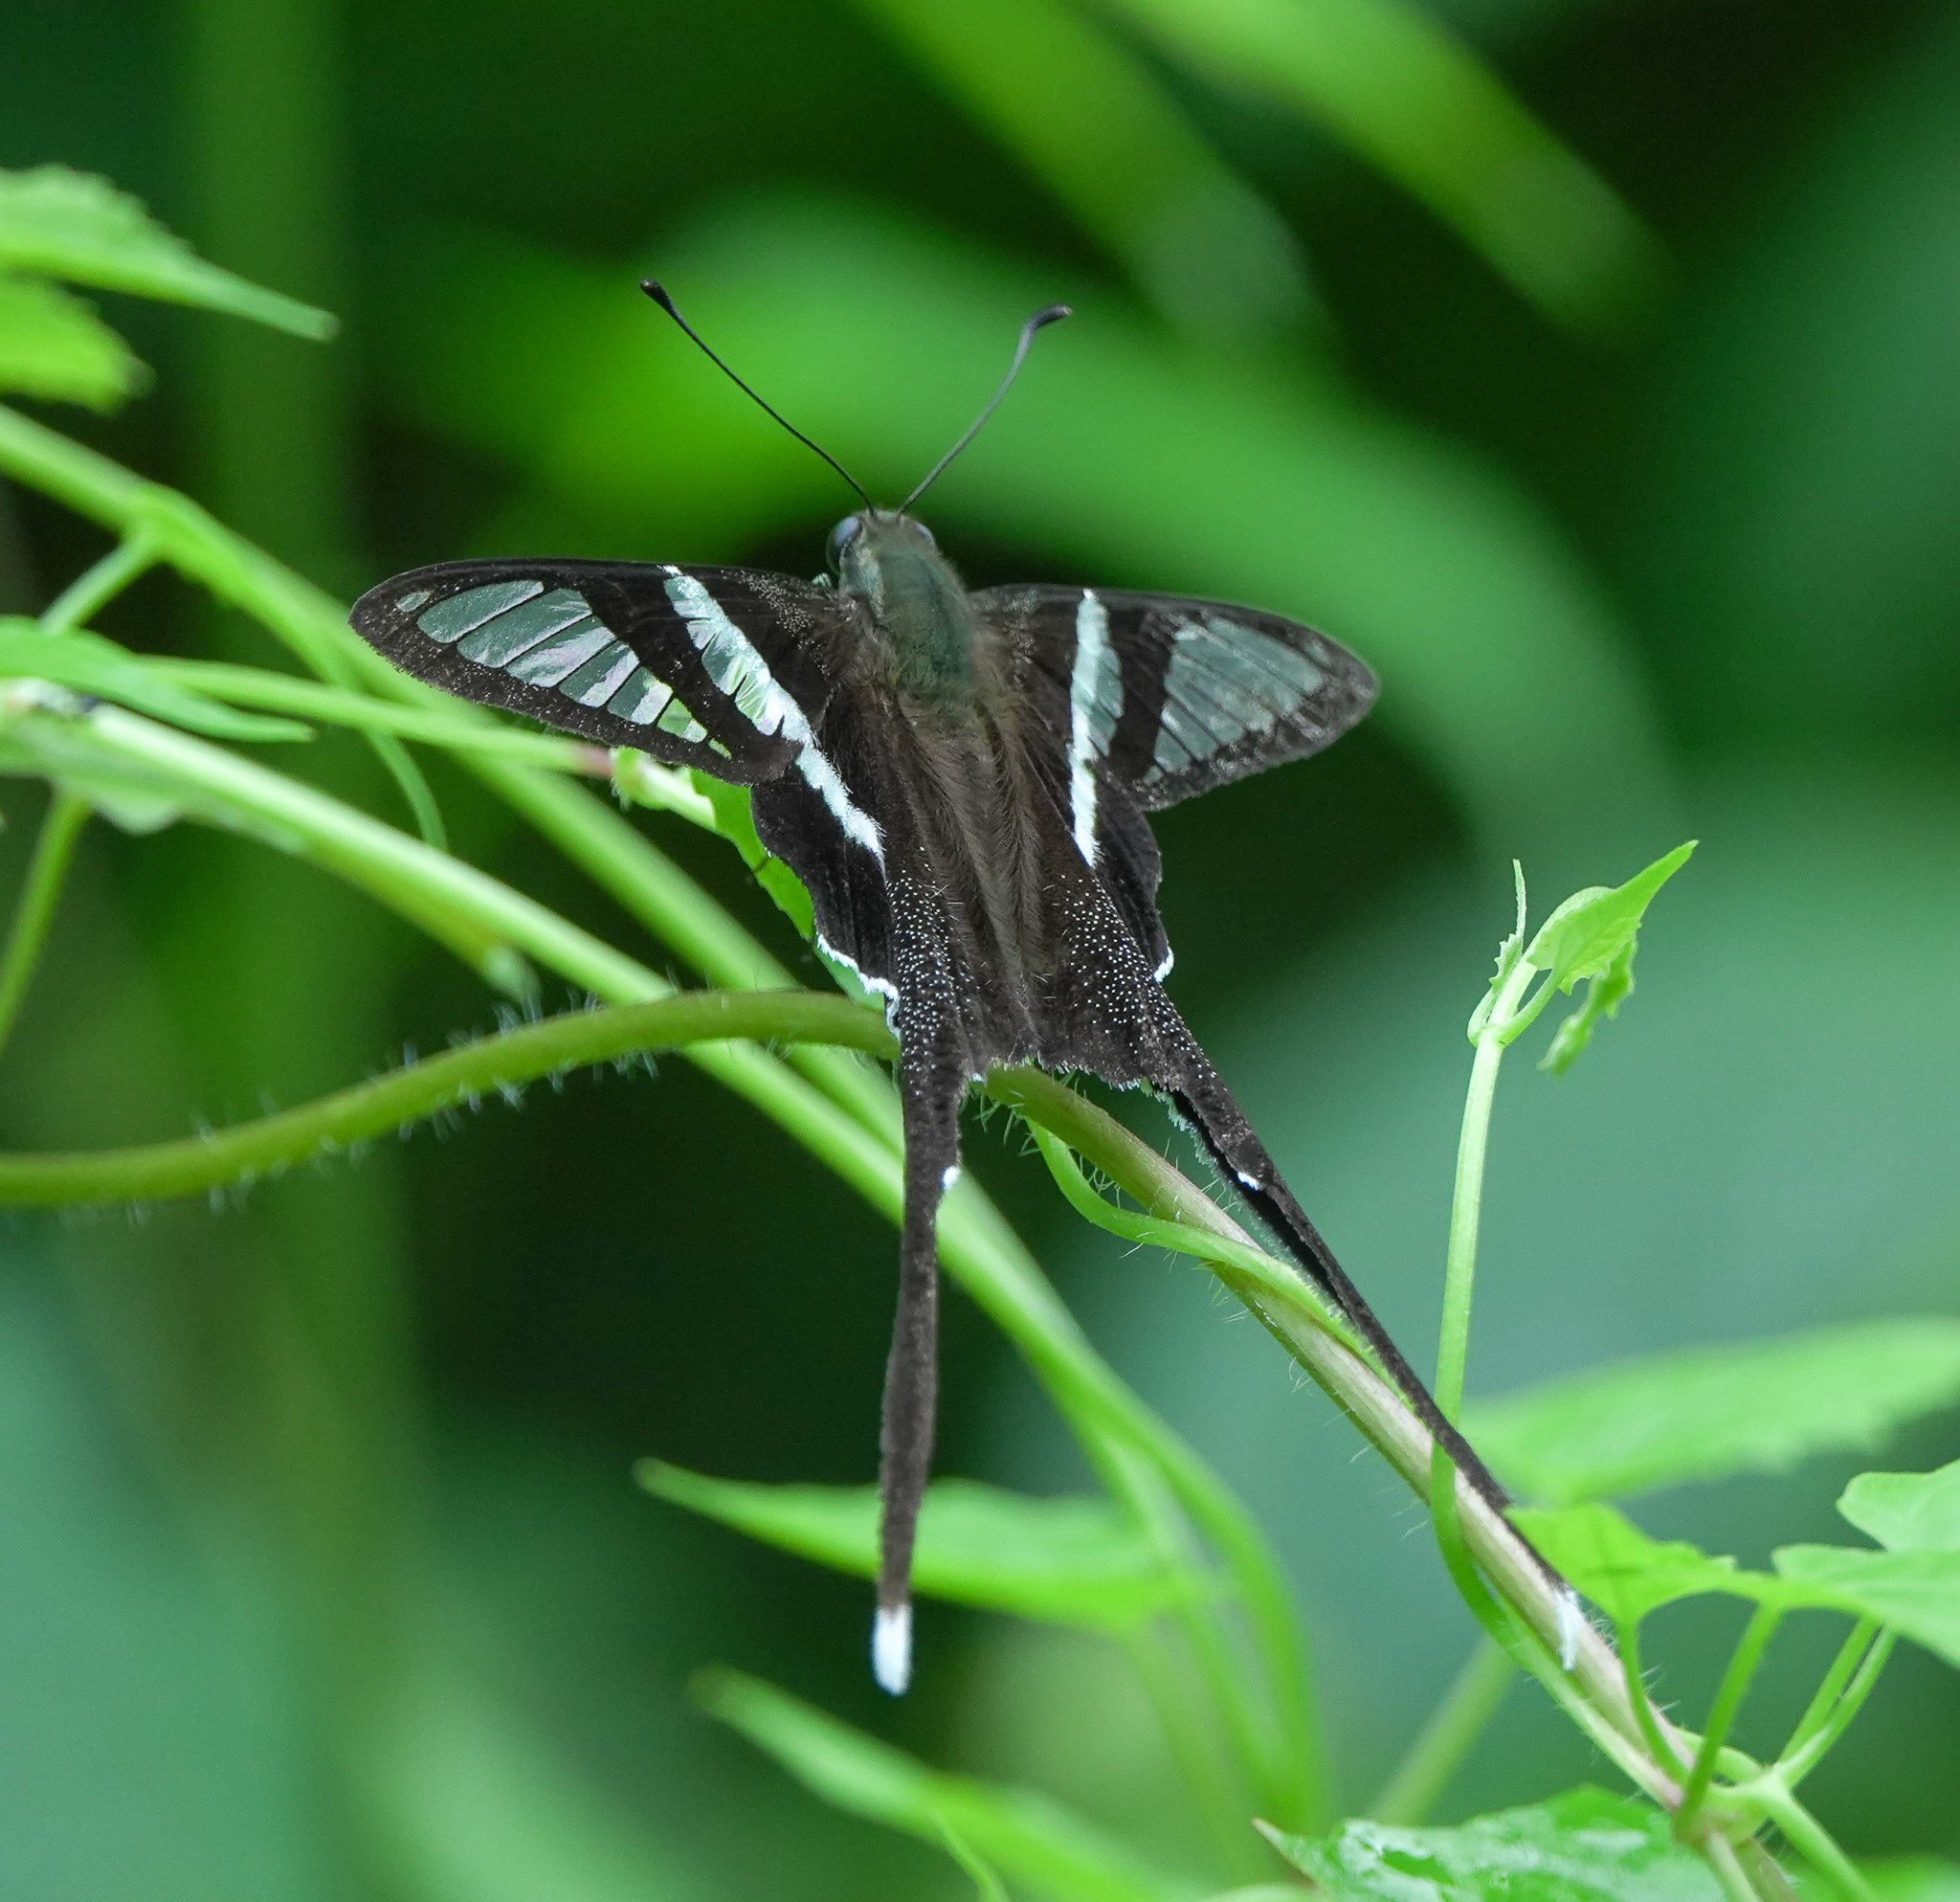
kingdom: Animalia
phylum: Arthropoda
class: Insecta
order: Lepidoptera
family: Papilionidae
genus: Lamproptera
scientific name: Lamproptera curius
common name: White dragontail
